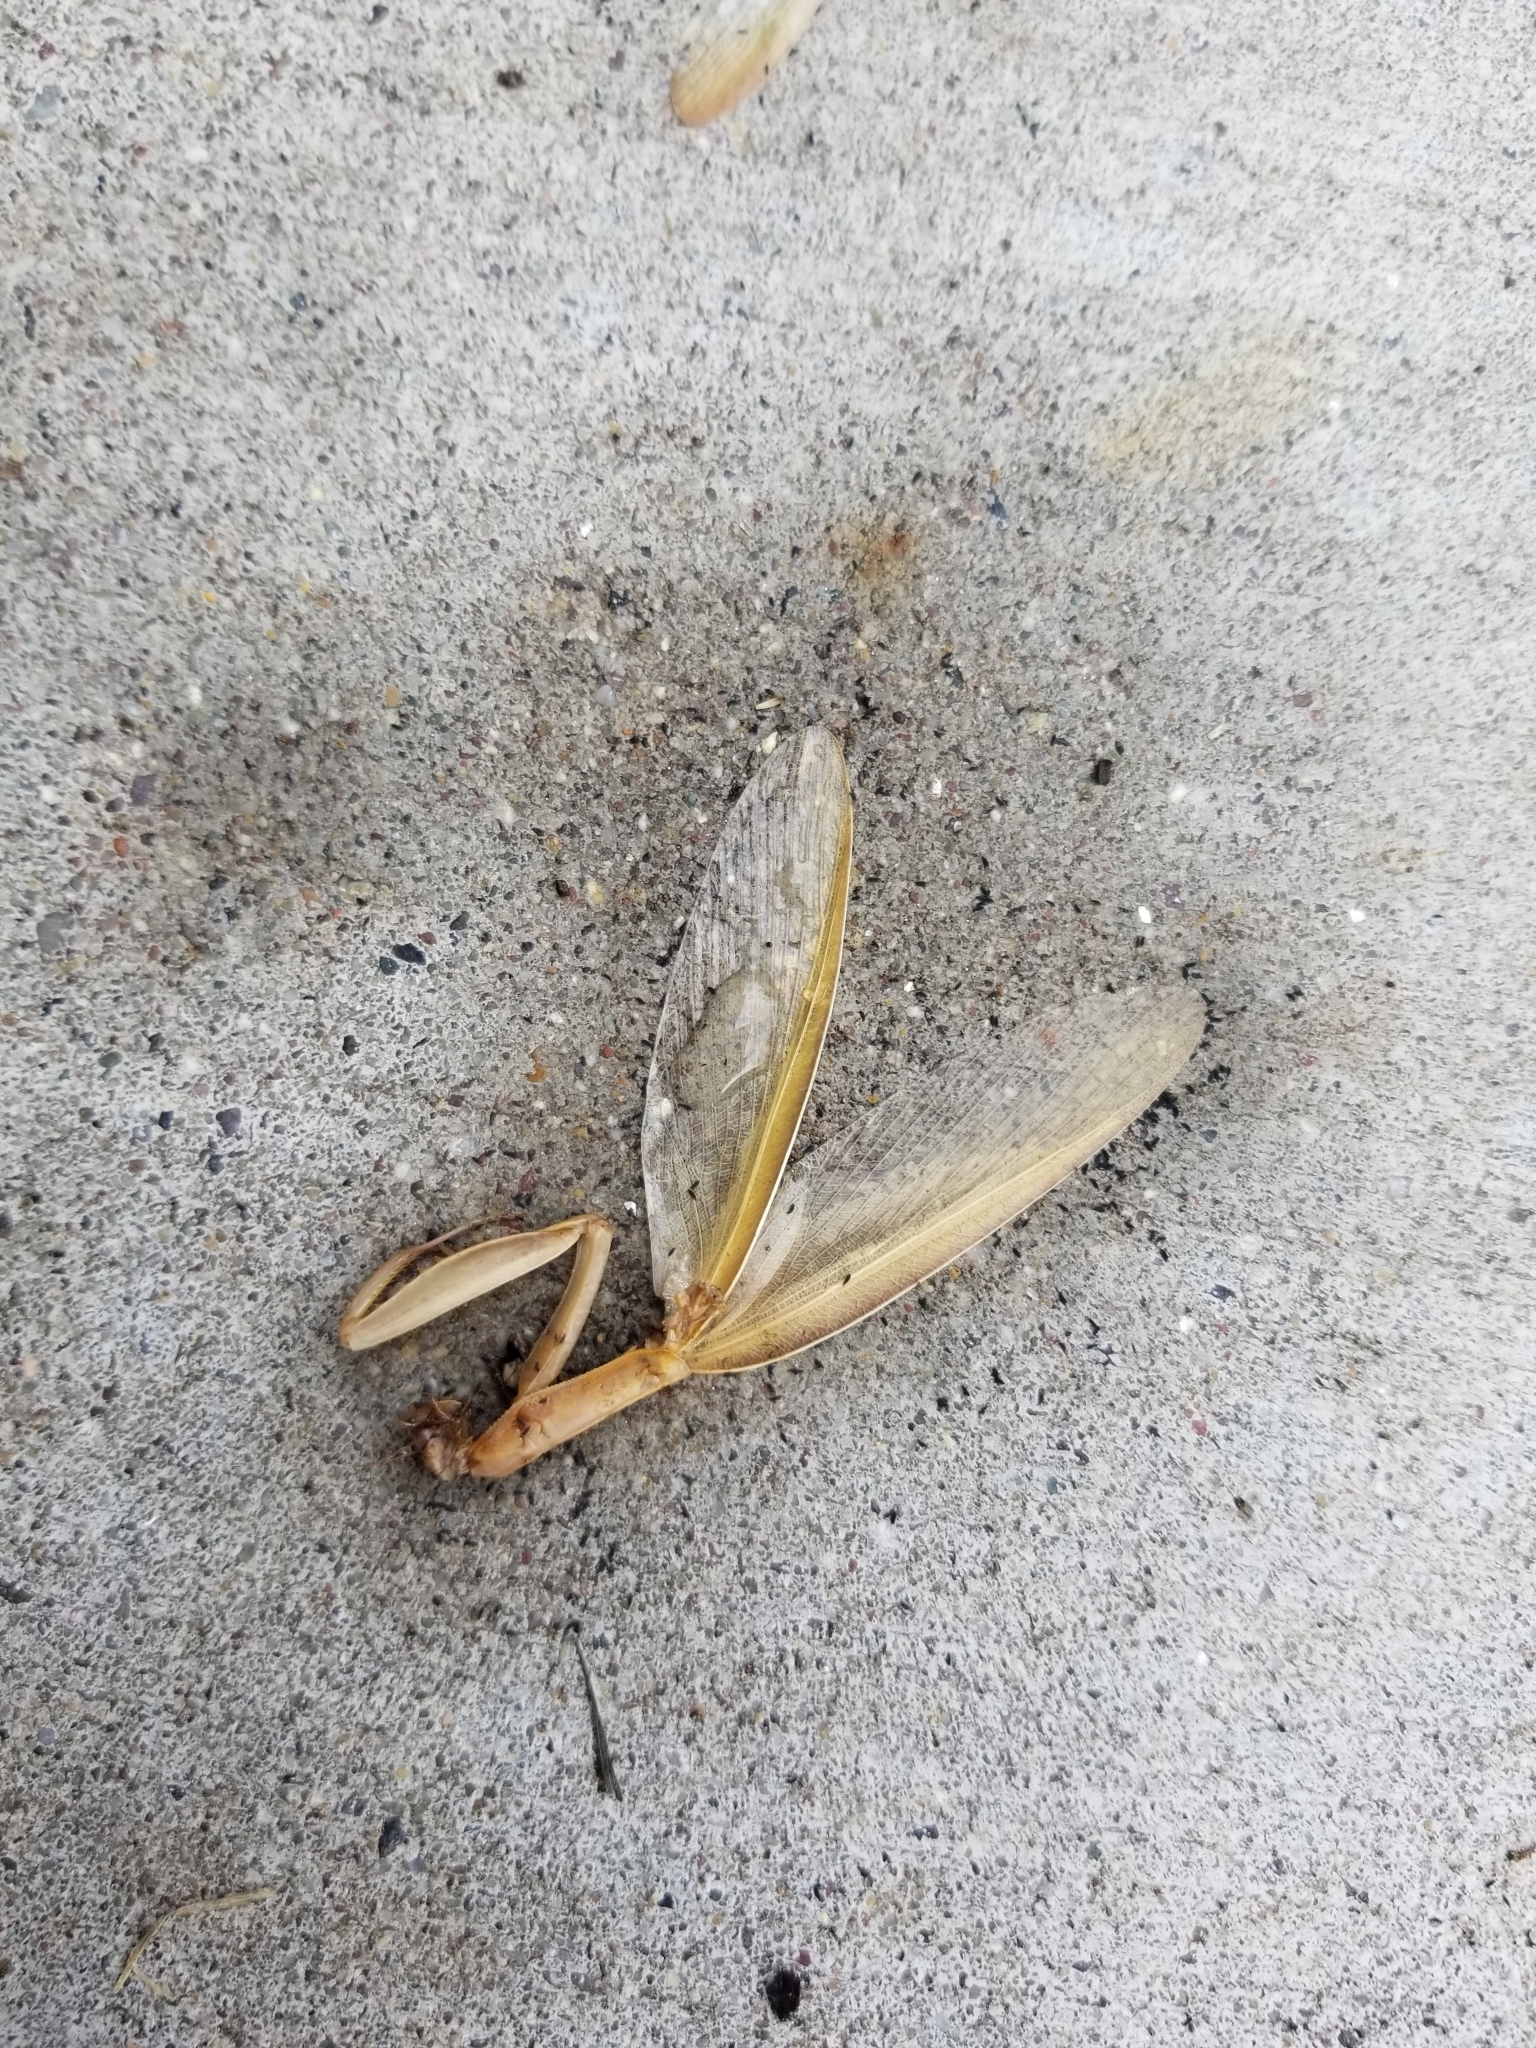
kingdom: Animalia
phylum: Arthropoda
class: Insecta
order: Mantodea
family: Mantidae
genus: Mantis
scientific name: Mantis religiosa
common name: Praying mantis
